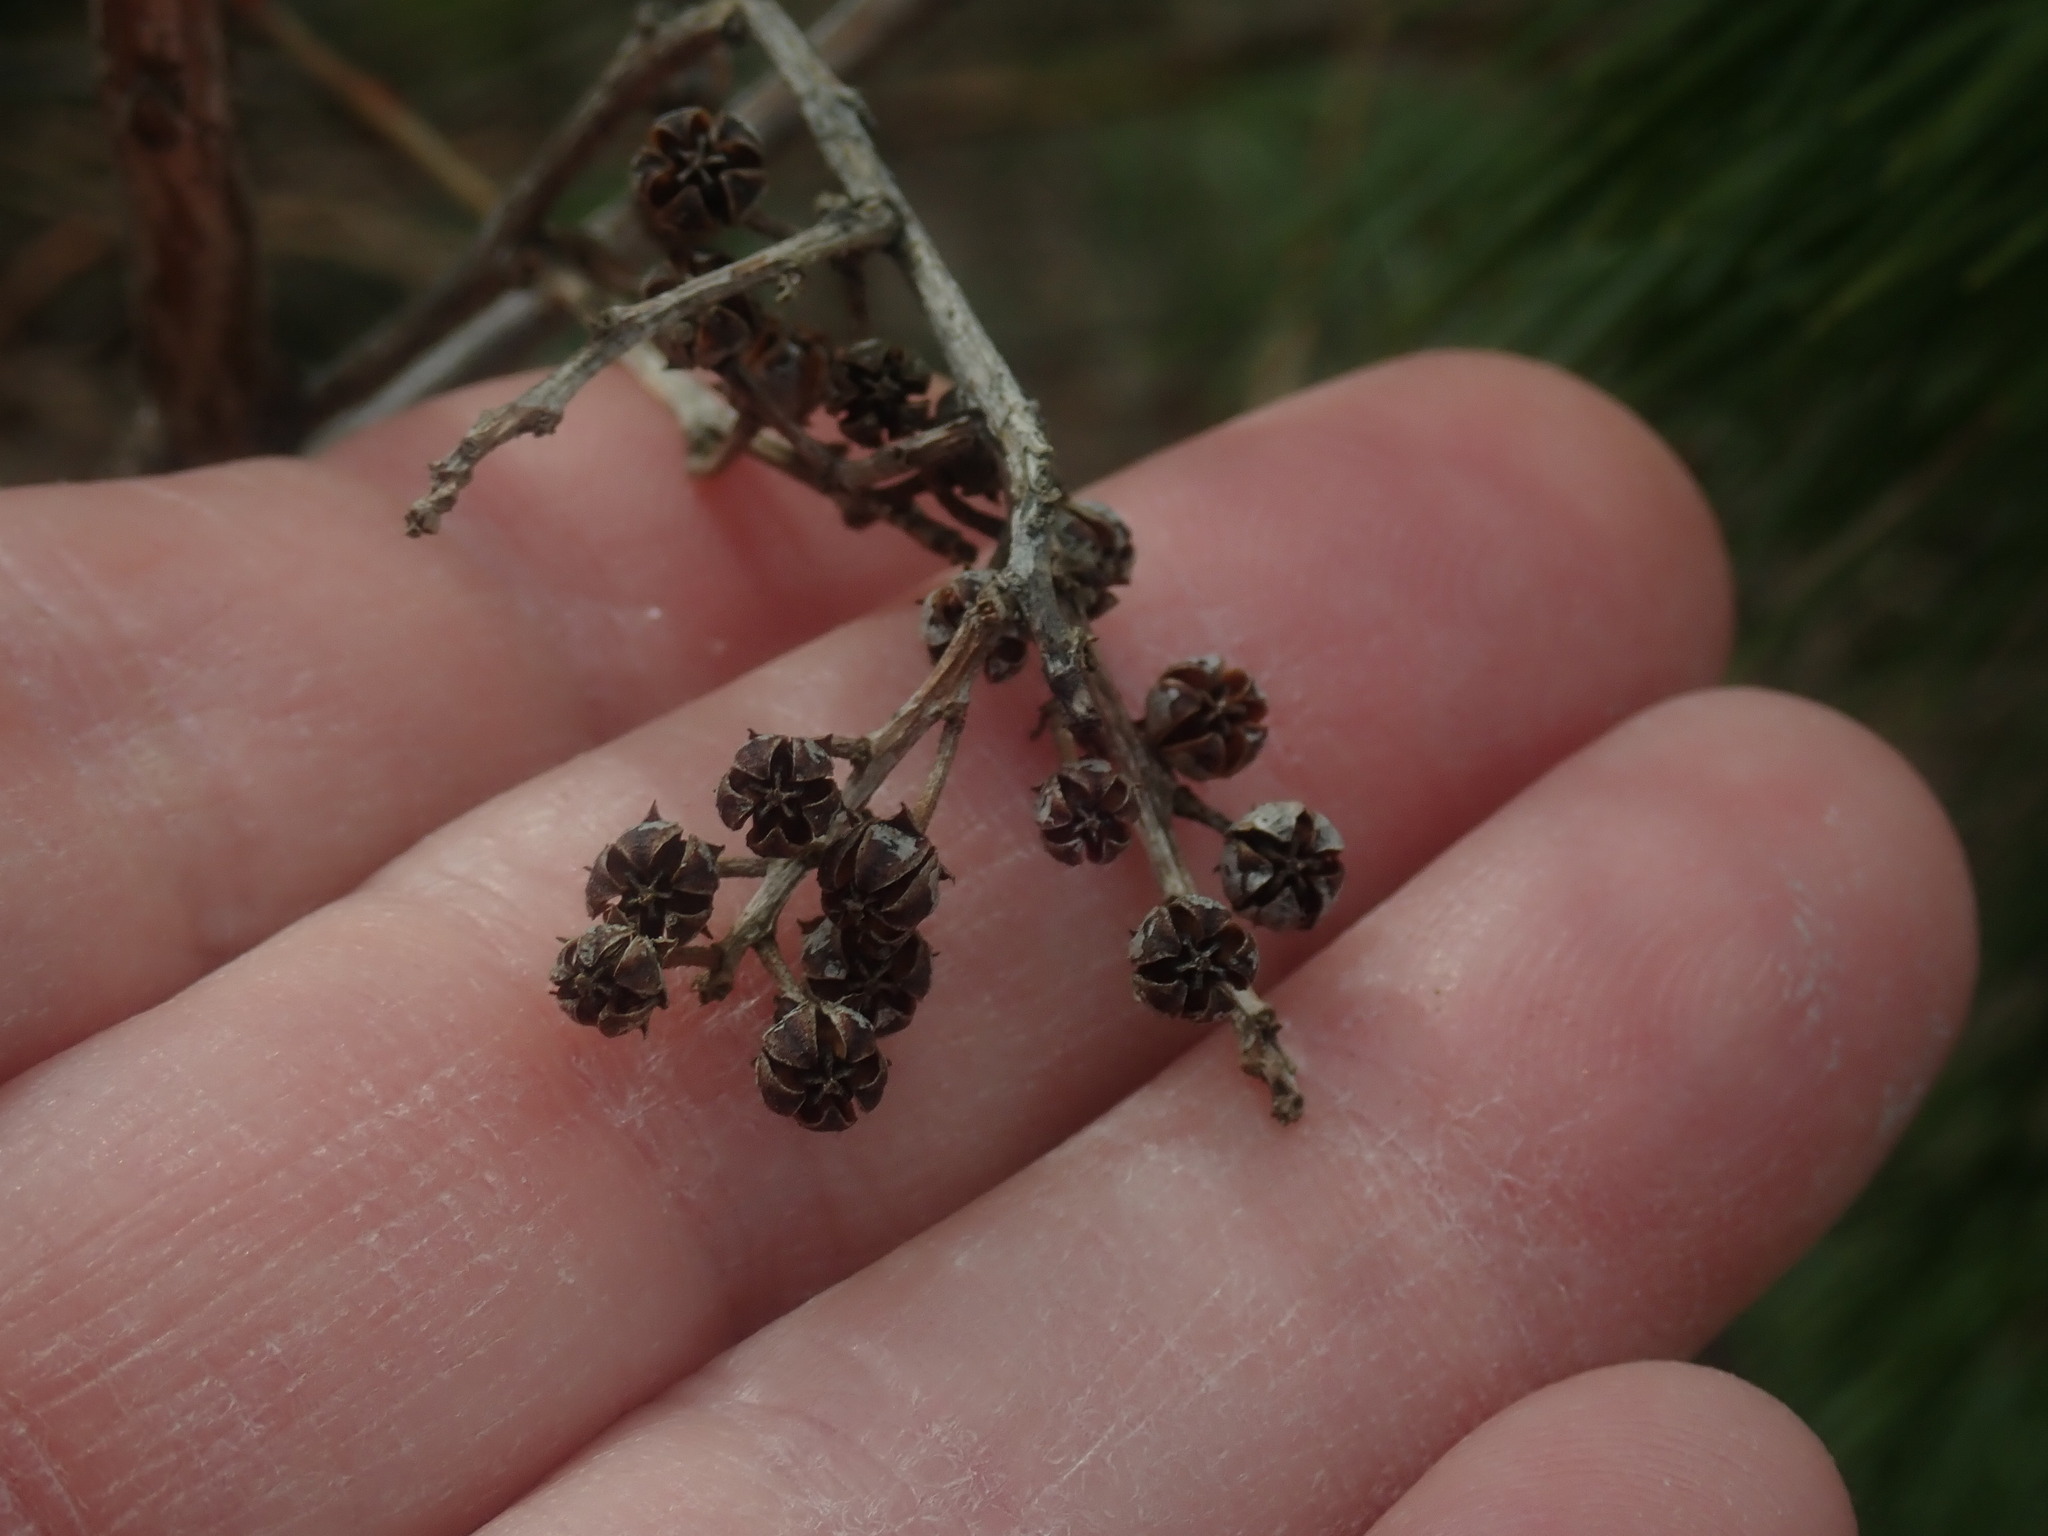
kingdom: Plantae
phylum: Tracheophyta
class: Magnoliopsida
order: Ericales
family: Ericaceae
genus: Lyonia
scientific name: Lyonia ligustrina
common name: Maleberry
